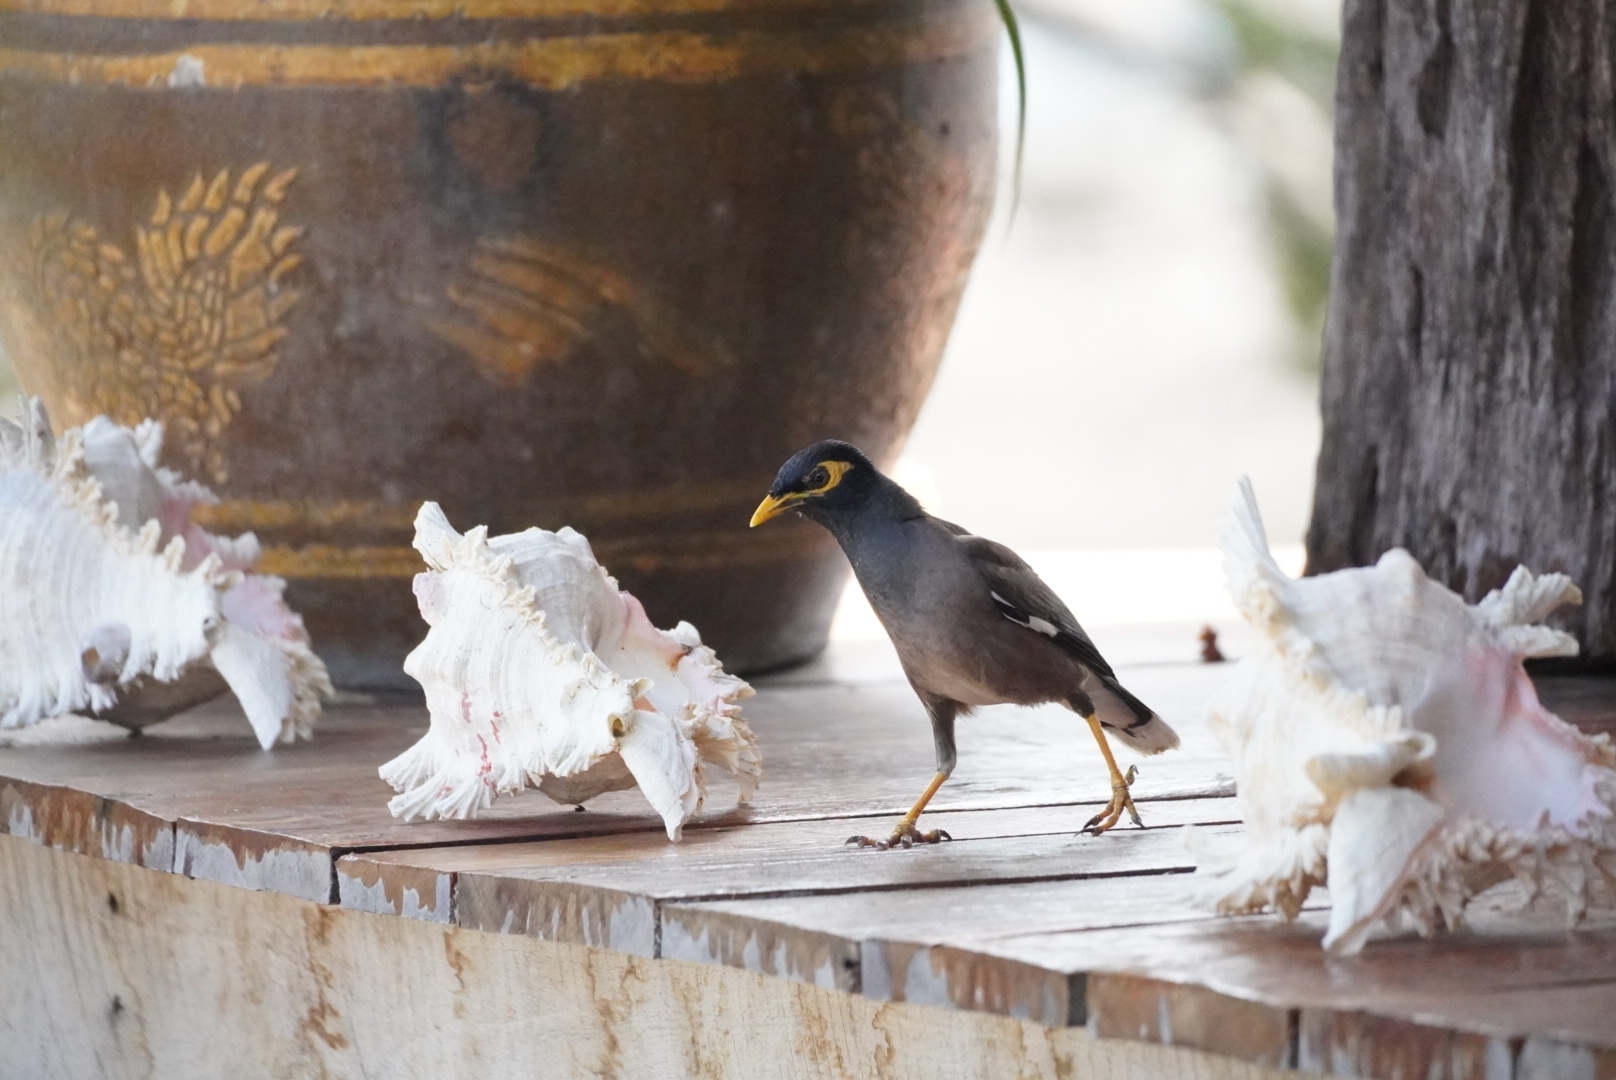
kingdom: Animalia
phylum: Chordata
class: Aves
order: Passeriformes
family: Sturnidae
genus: Acridotheres
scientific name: Acridotheres tristis
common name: Common myna
